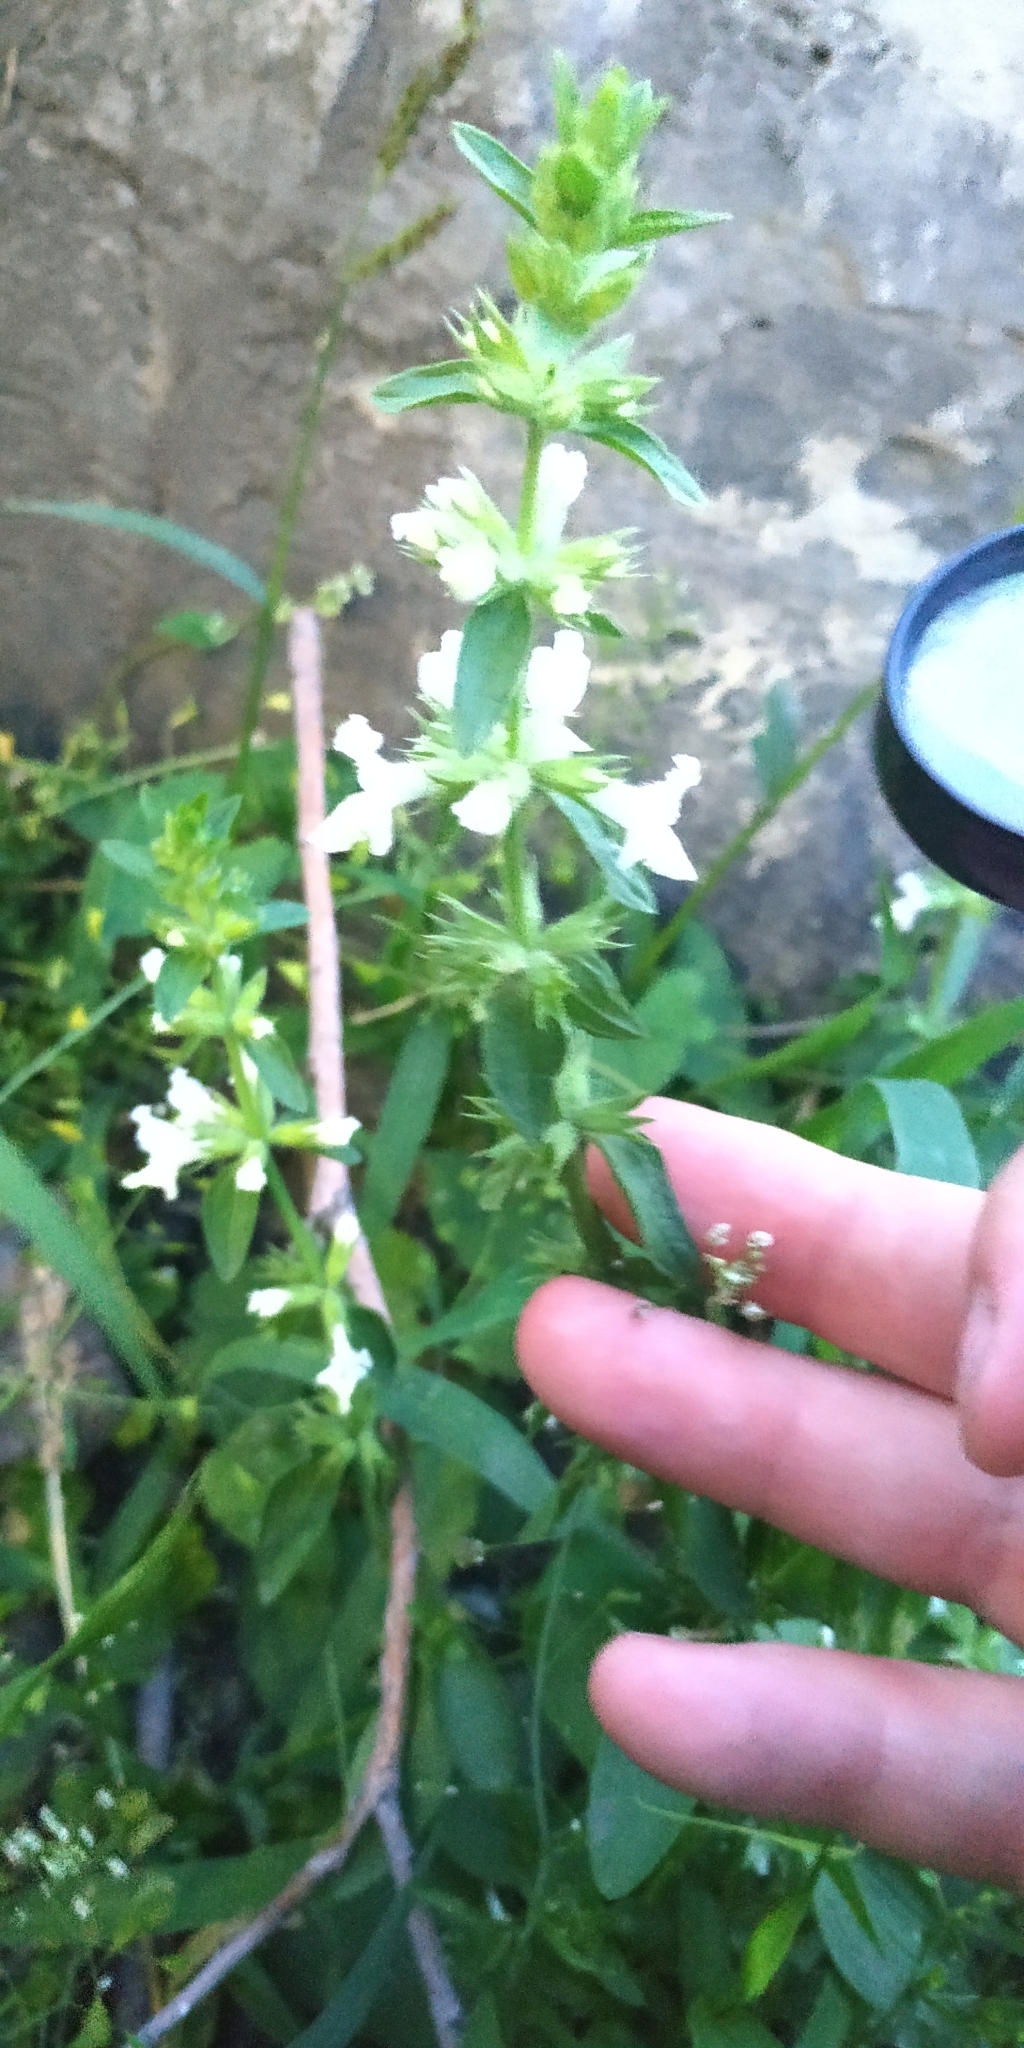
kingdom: Plantae
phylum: Tracheophyta
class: Magnoliopsida
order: Lamiales
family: Lamiaceae
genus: Stachys
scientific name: Stachys annua
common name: Annual yellow-woundwort
